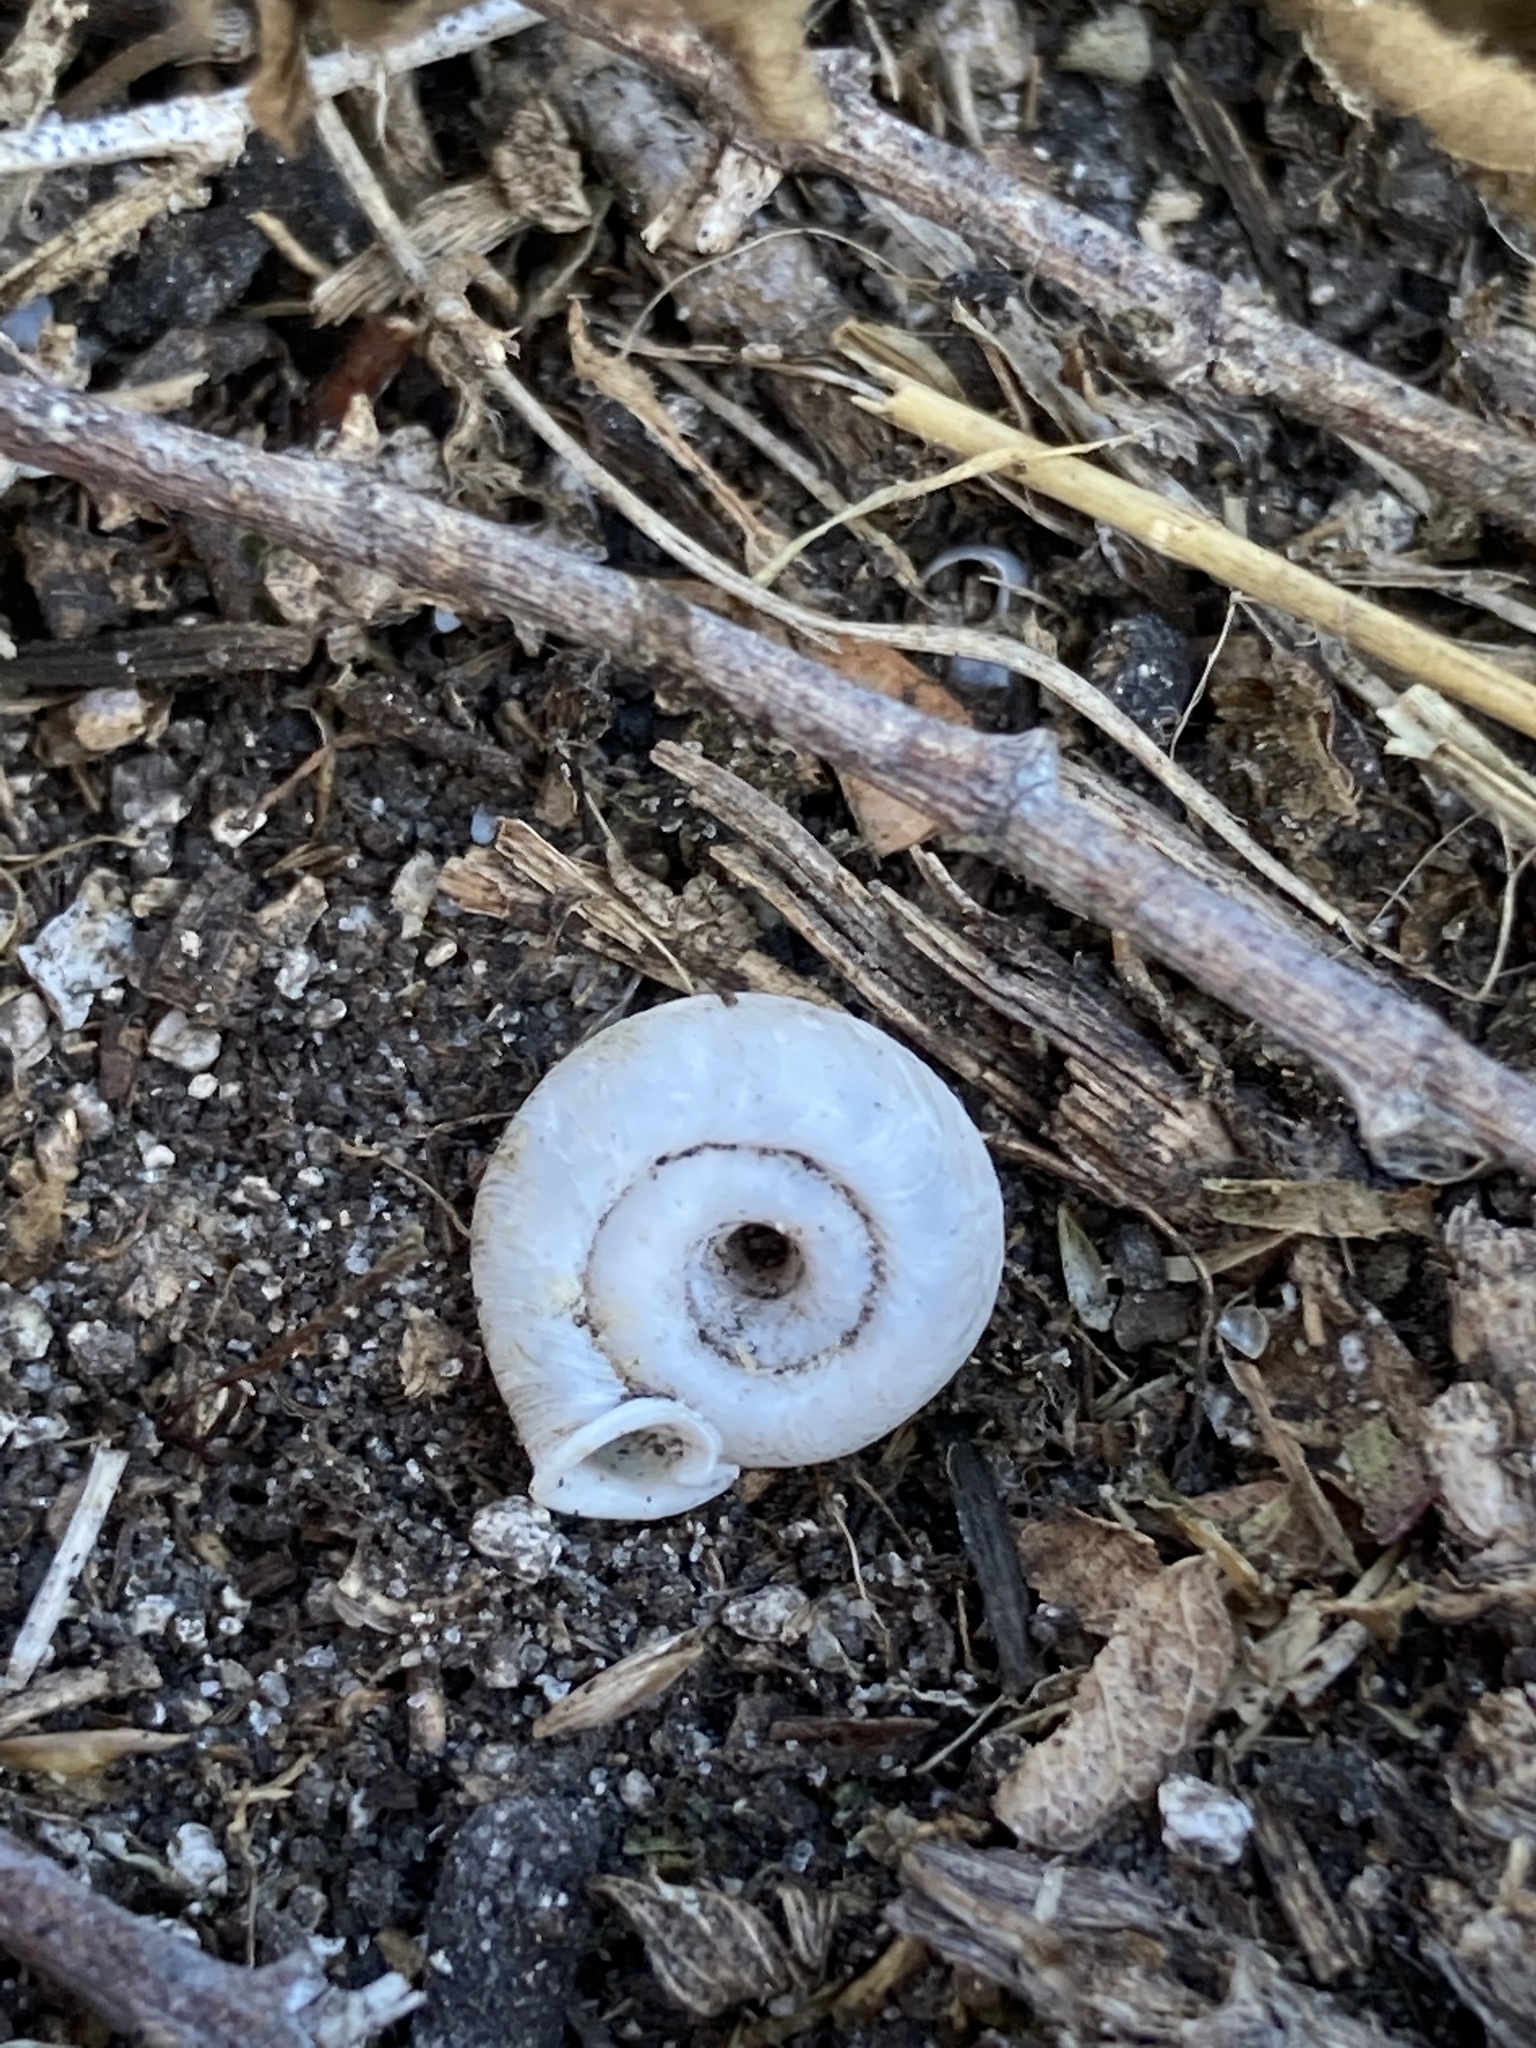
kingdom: Animalia
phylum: Mollusca
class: Gastropoda
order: Stylommatophora
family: Polygyridae
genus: Polygyra
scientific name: Polygyra cereolus
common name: Southern flatcone snail
